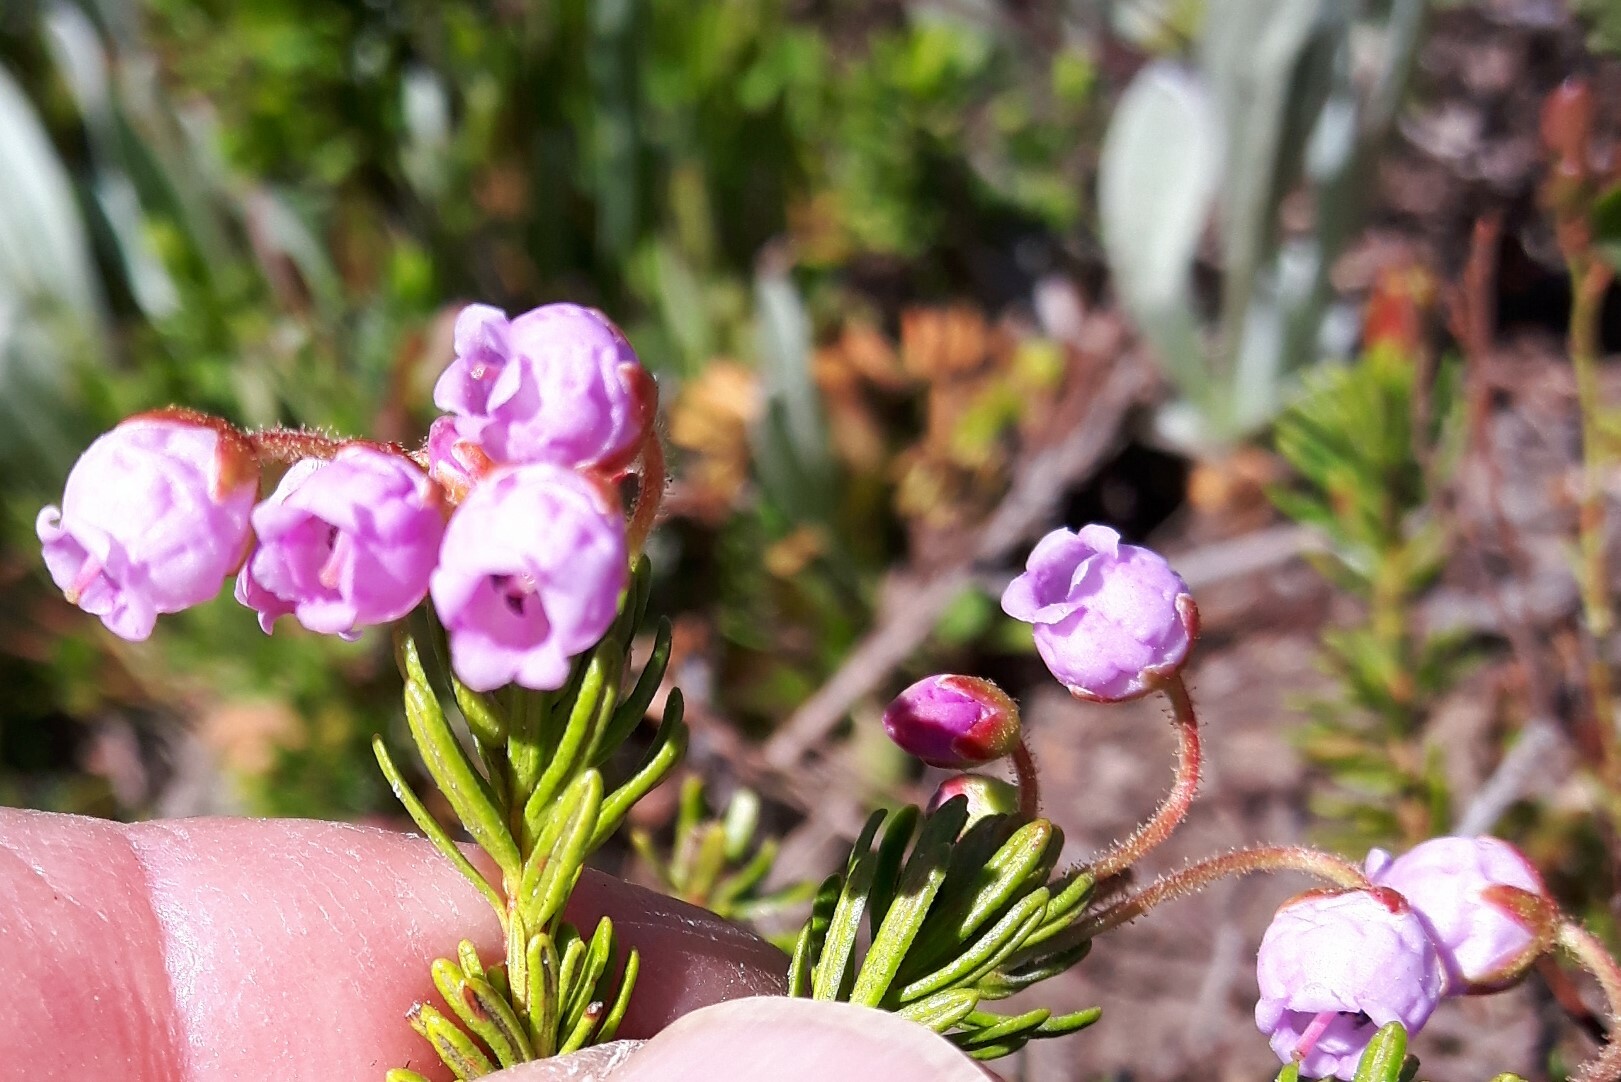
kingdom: Plantae
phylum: Tracheophyta
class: Magnoliopsida
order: Ericales
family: Ericaceae
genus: Phyllodoce
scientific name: Phyllodoce intermedia
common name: Hybrid mountain heather
